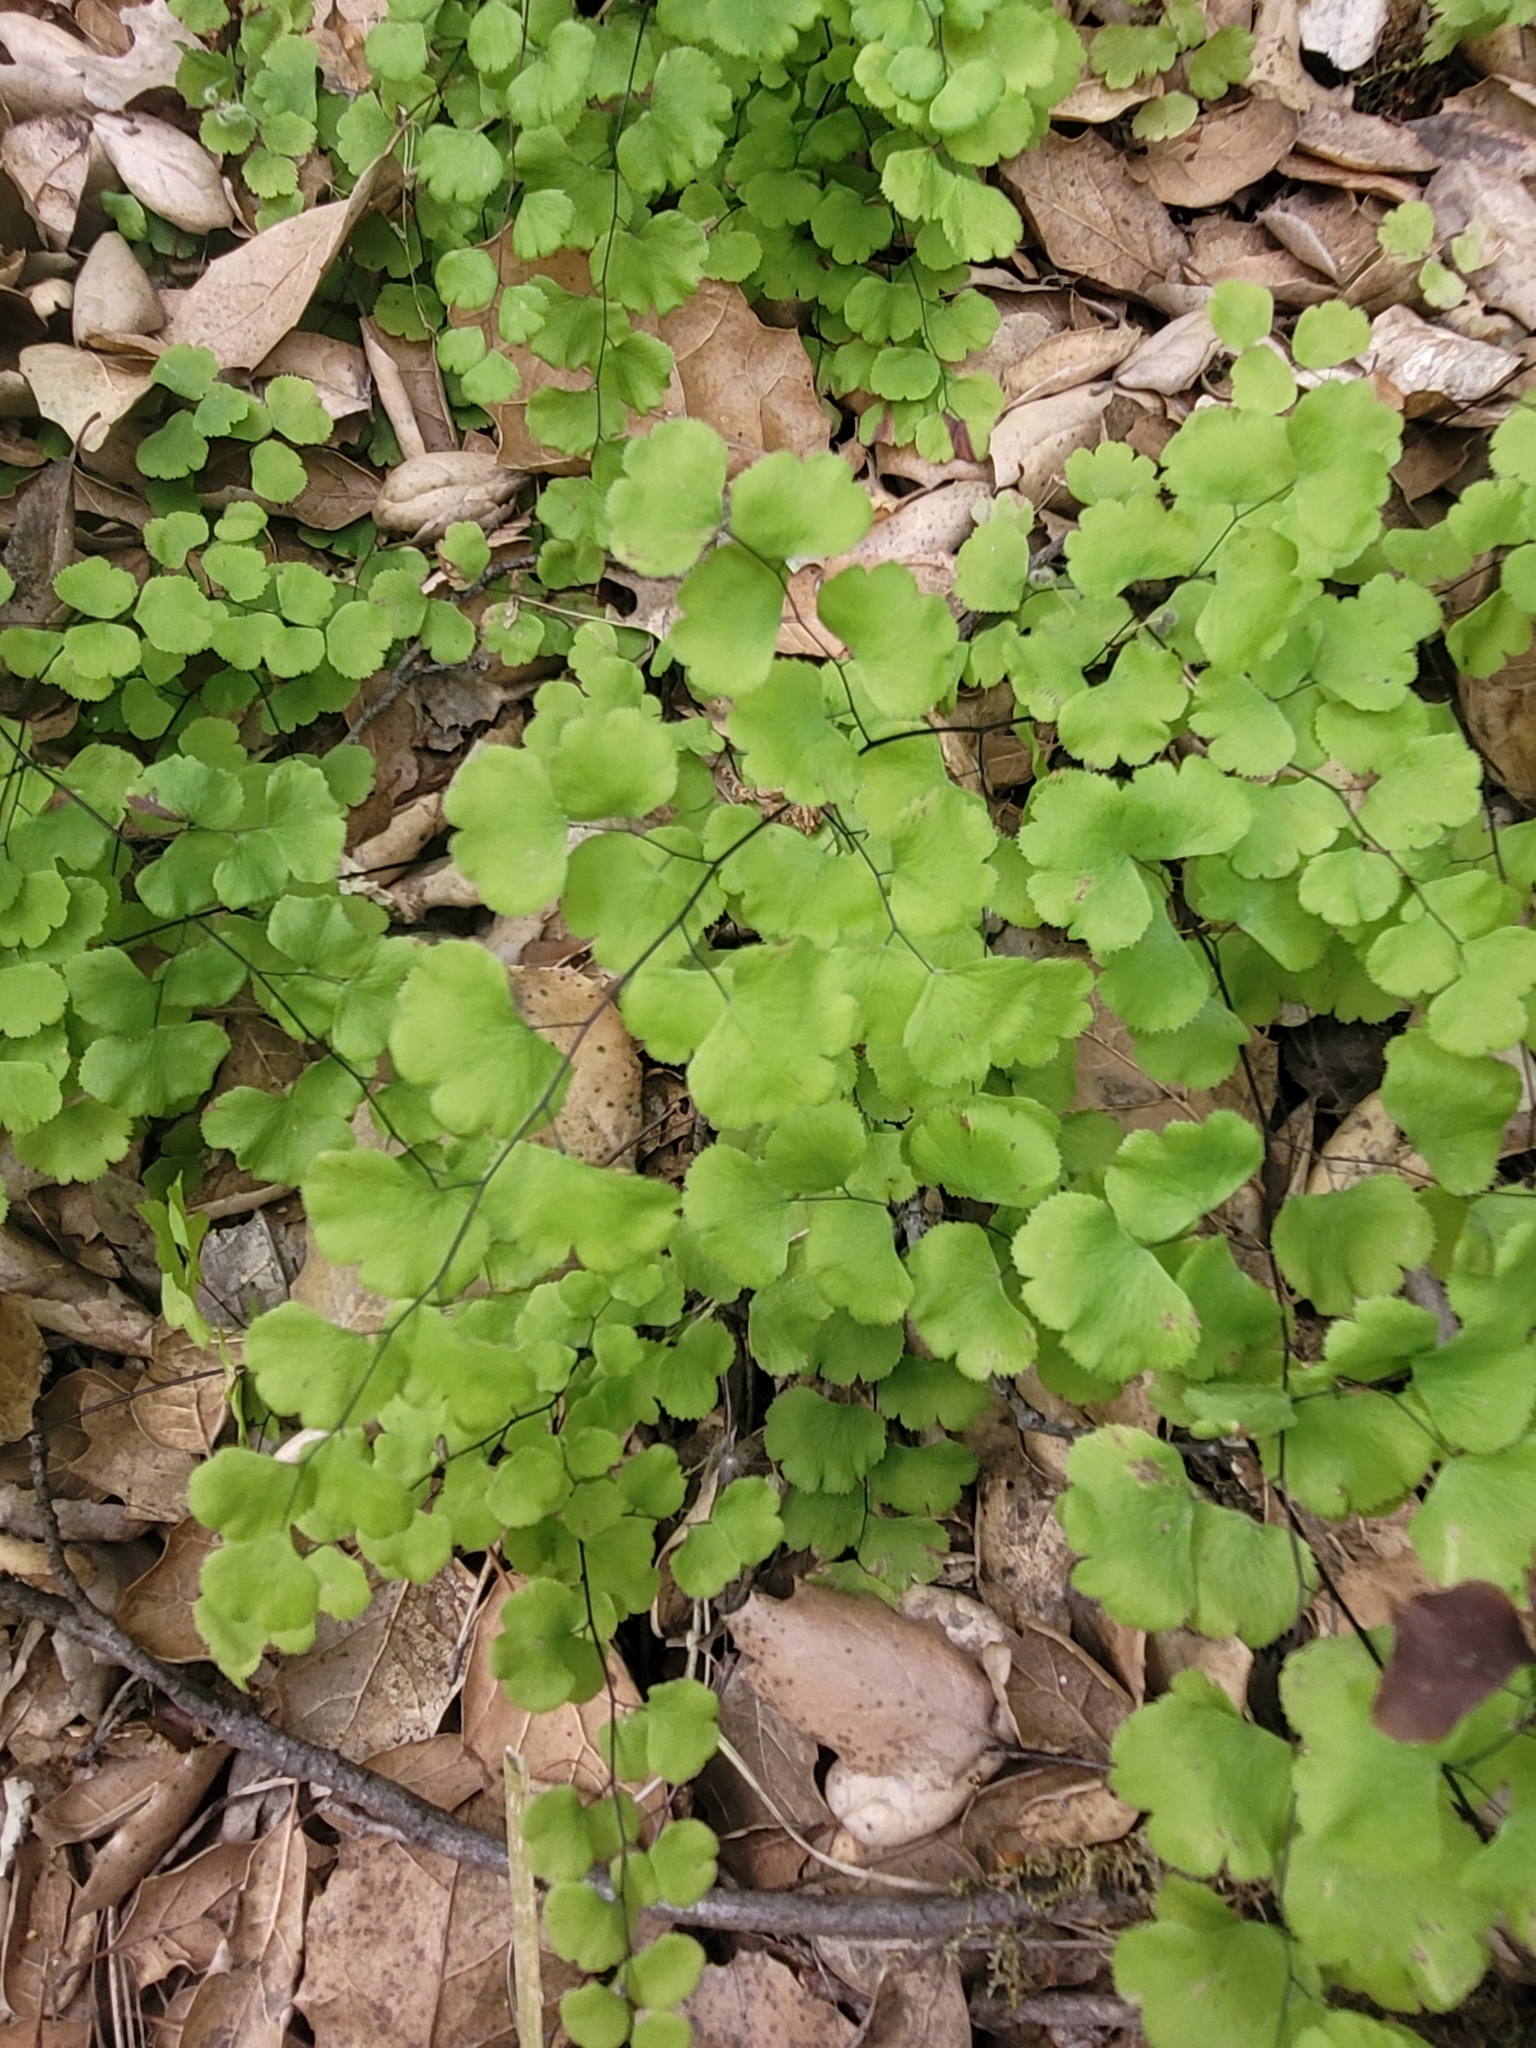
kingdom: Plantae
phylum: Tracheophyta
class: Polypodiopsida
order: Polypodiales
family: Pteridaceae
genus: Adiantum
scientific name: Adiantum jordanii
